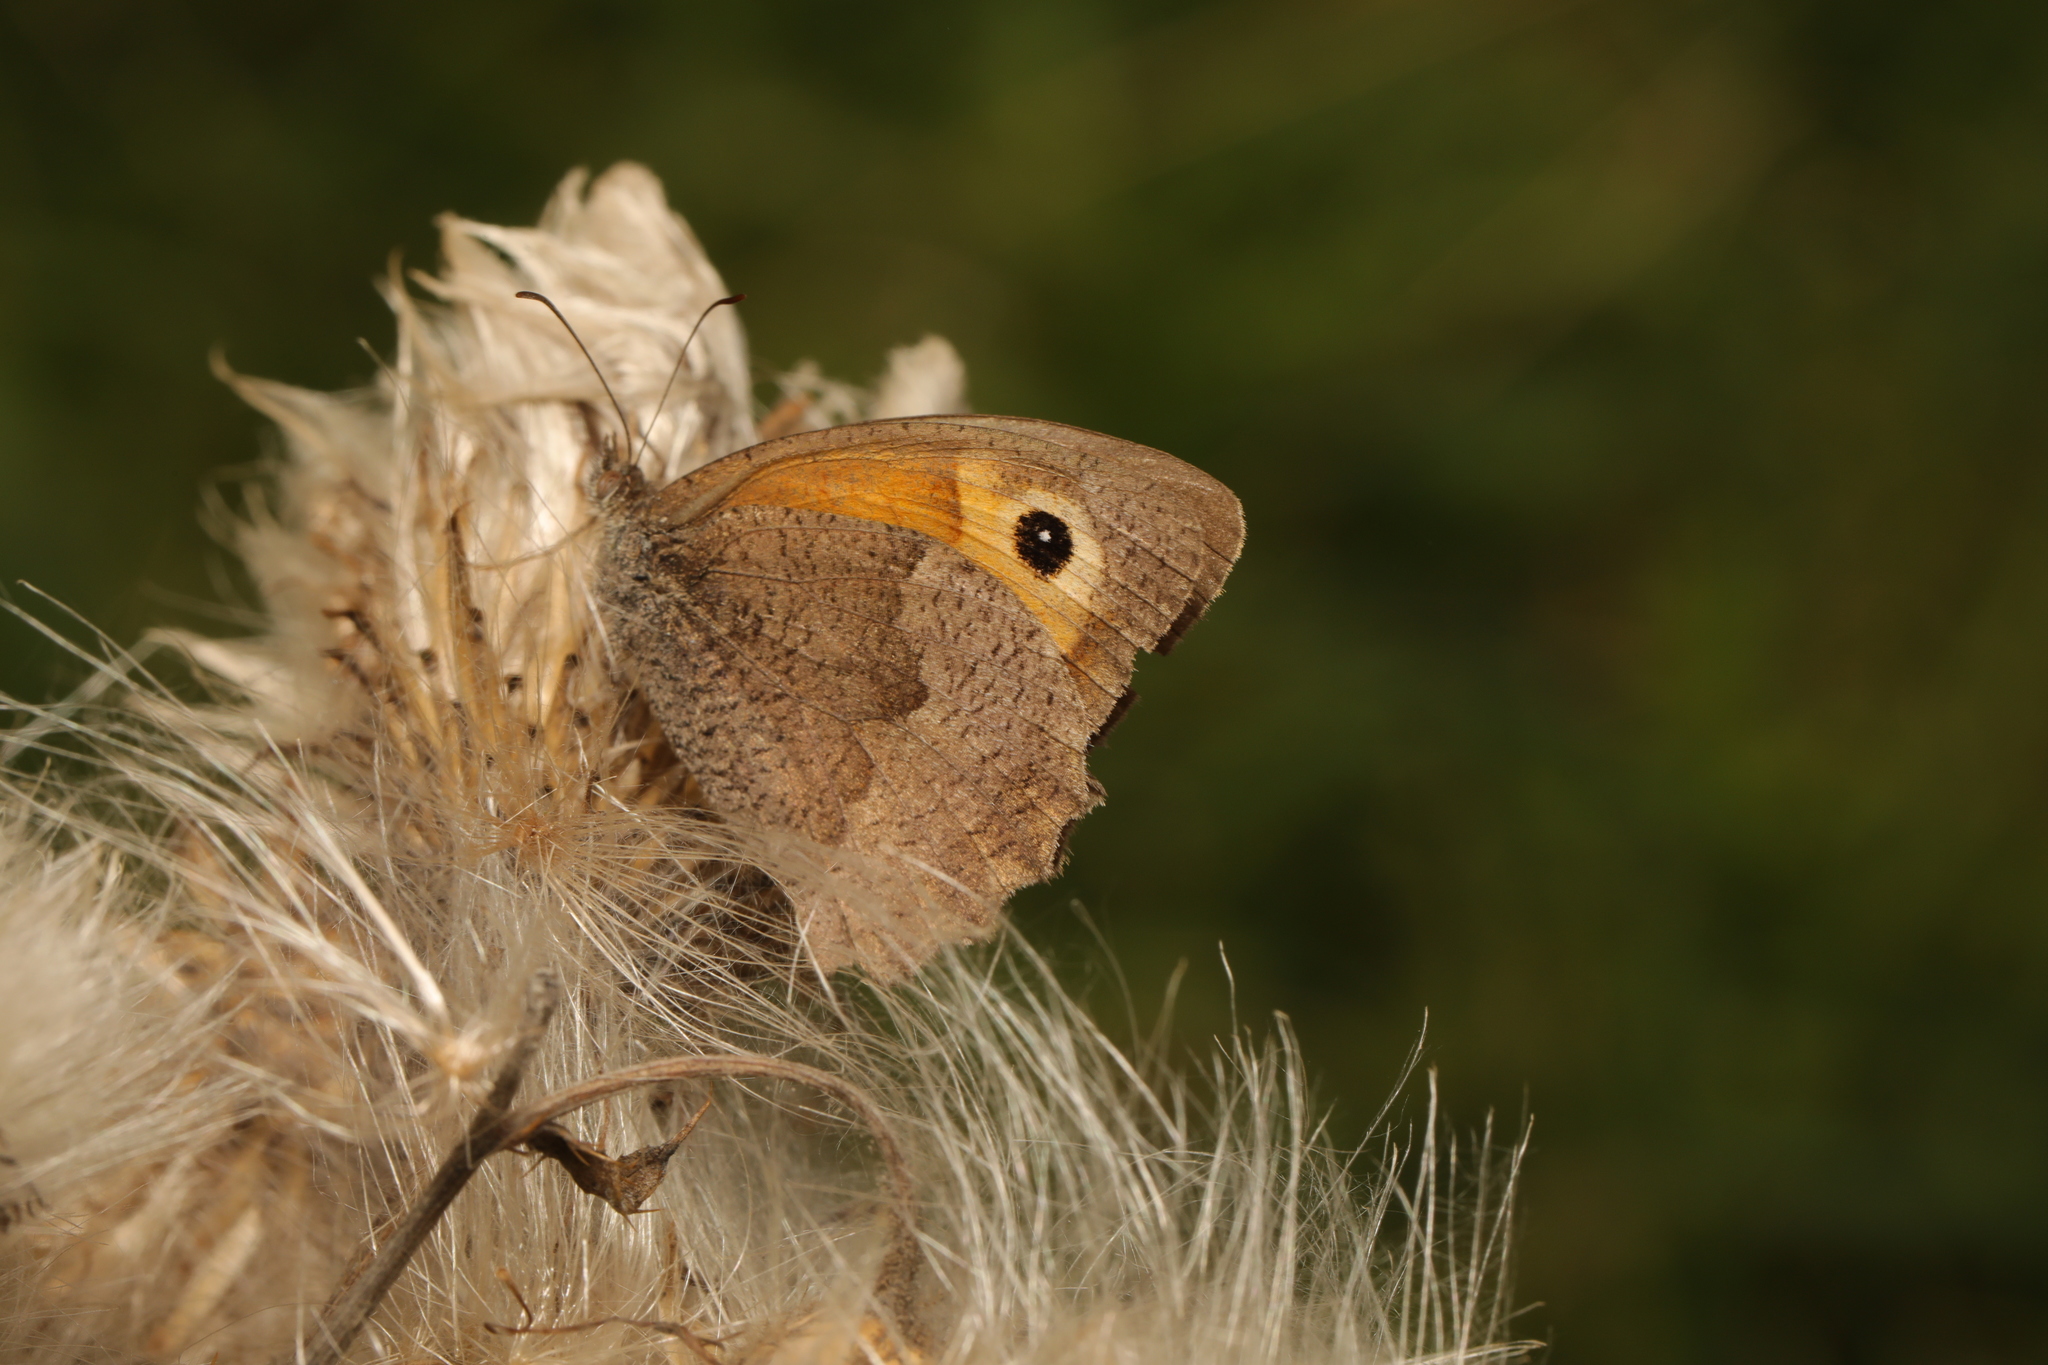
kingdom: Animalia
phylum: Arthropoda
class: Insecta
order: Lepidoptera
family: Nymphalidae
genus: Maniola
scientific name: Maniola jurtina
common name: Meadow brown
